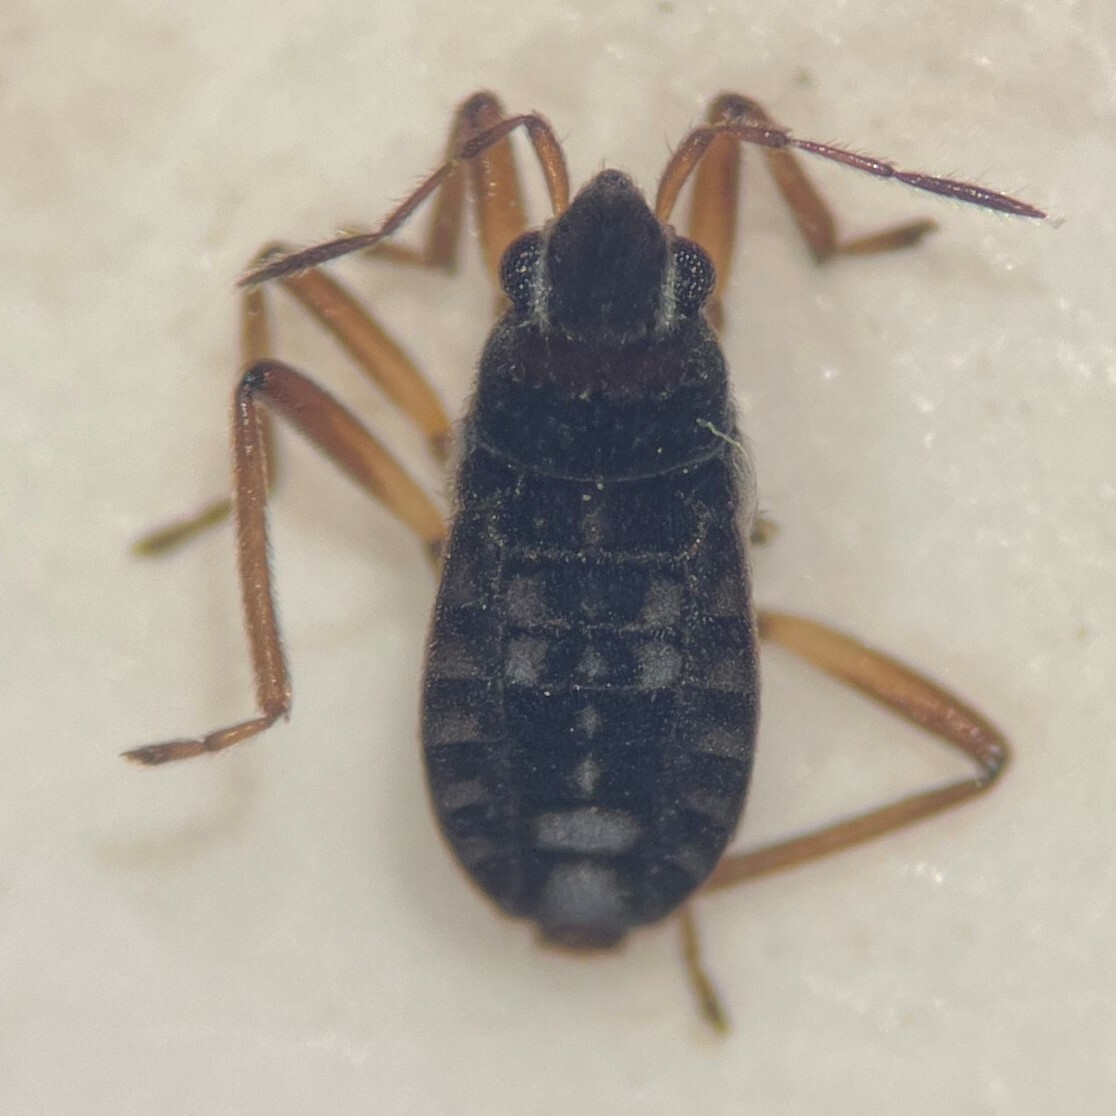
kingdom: Animalia
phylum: Arthropoda
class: Insecta
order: Hemiptera
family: Veliidae
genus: Microvelia
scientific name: Microvelia cerifera
